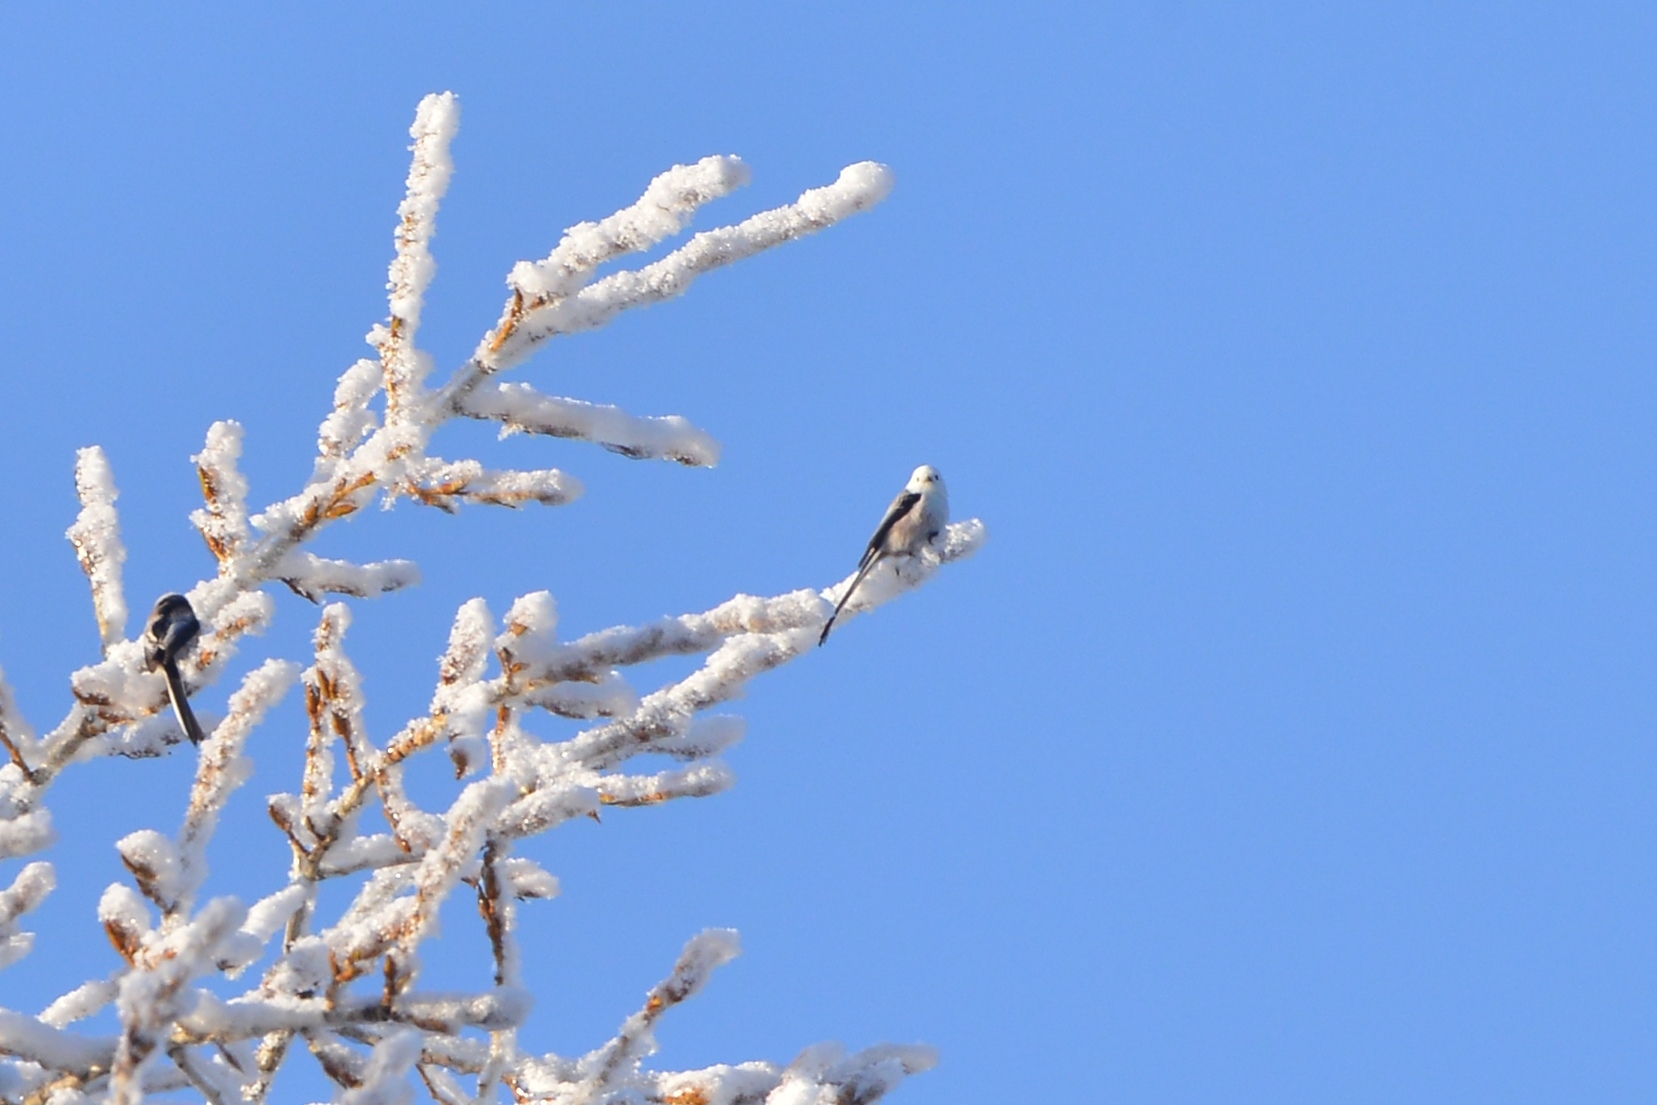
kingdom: Animalia
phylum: Chordata
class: Aves
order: Passeriformes
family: Aegithalidae
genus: Aegithalos
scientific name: Aegithalos caudatus
